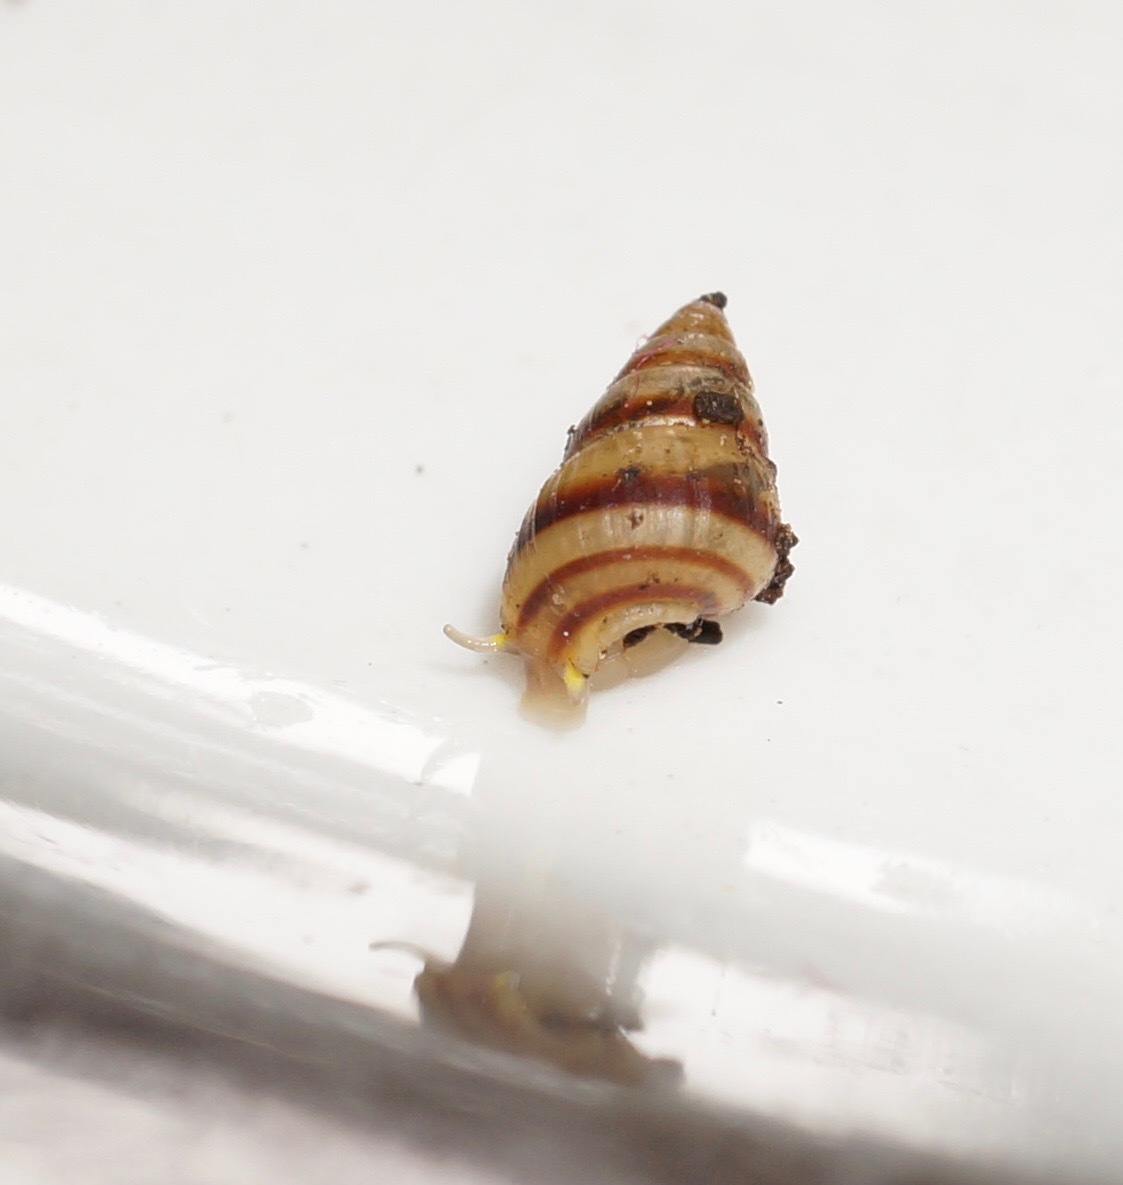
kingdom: Animalia
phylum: Mollusca
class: Gastropoda
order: Littorinimorpha
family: Assimineidae
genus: Telmosena
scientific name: Telmosena suteri
